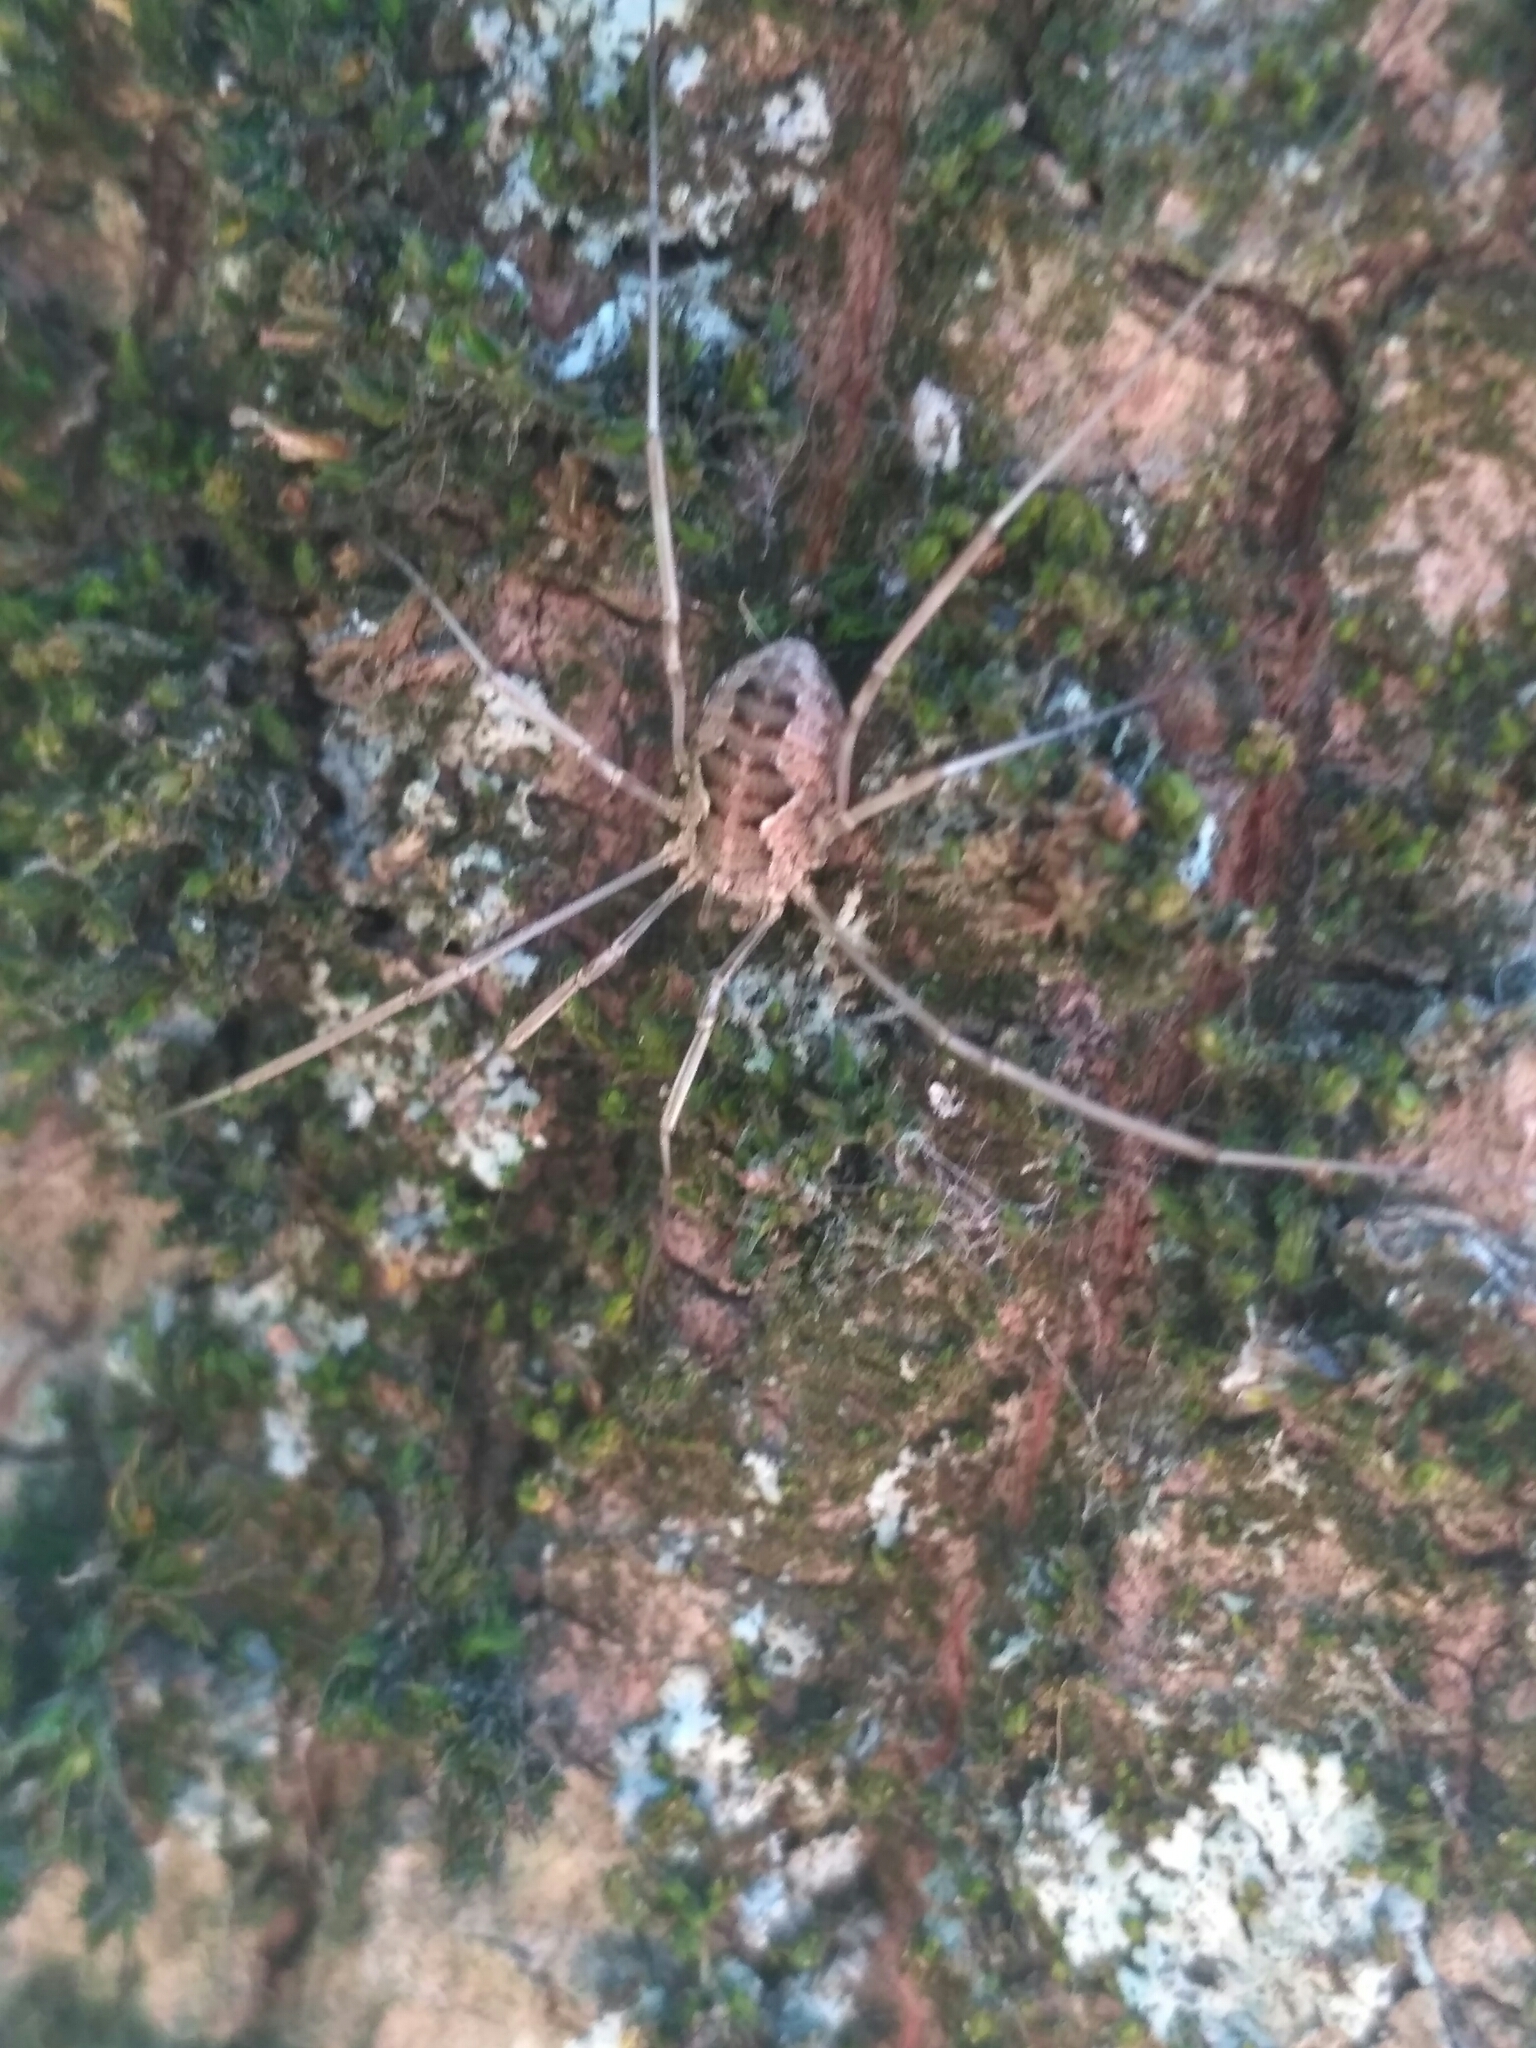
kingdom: Animalia
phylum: Arthropoda
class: Arachnida
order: Opiliones
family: Phalangiidae
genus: Phalangium
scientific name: Phalangium opilio
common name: Daddy longleg
